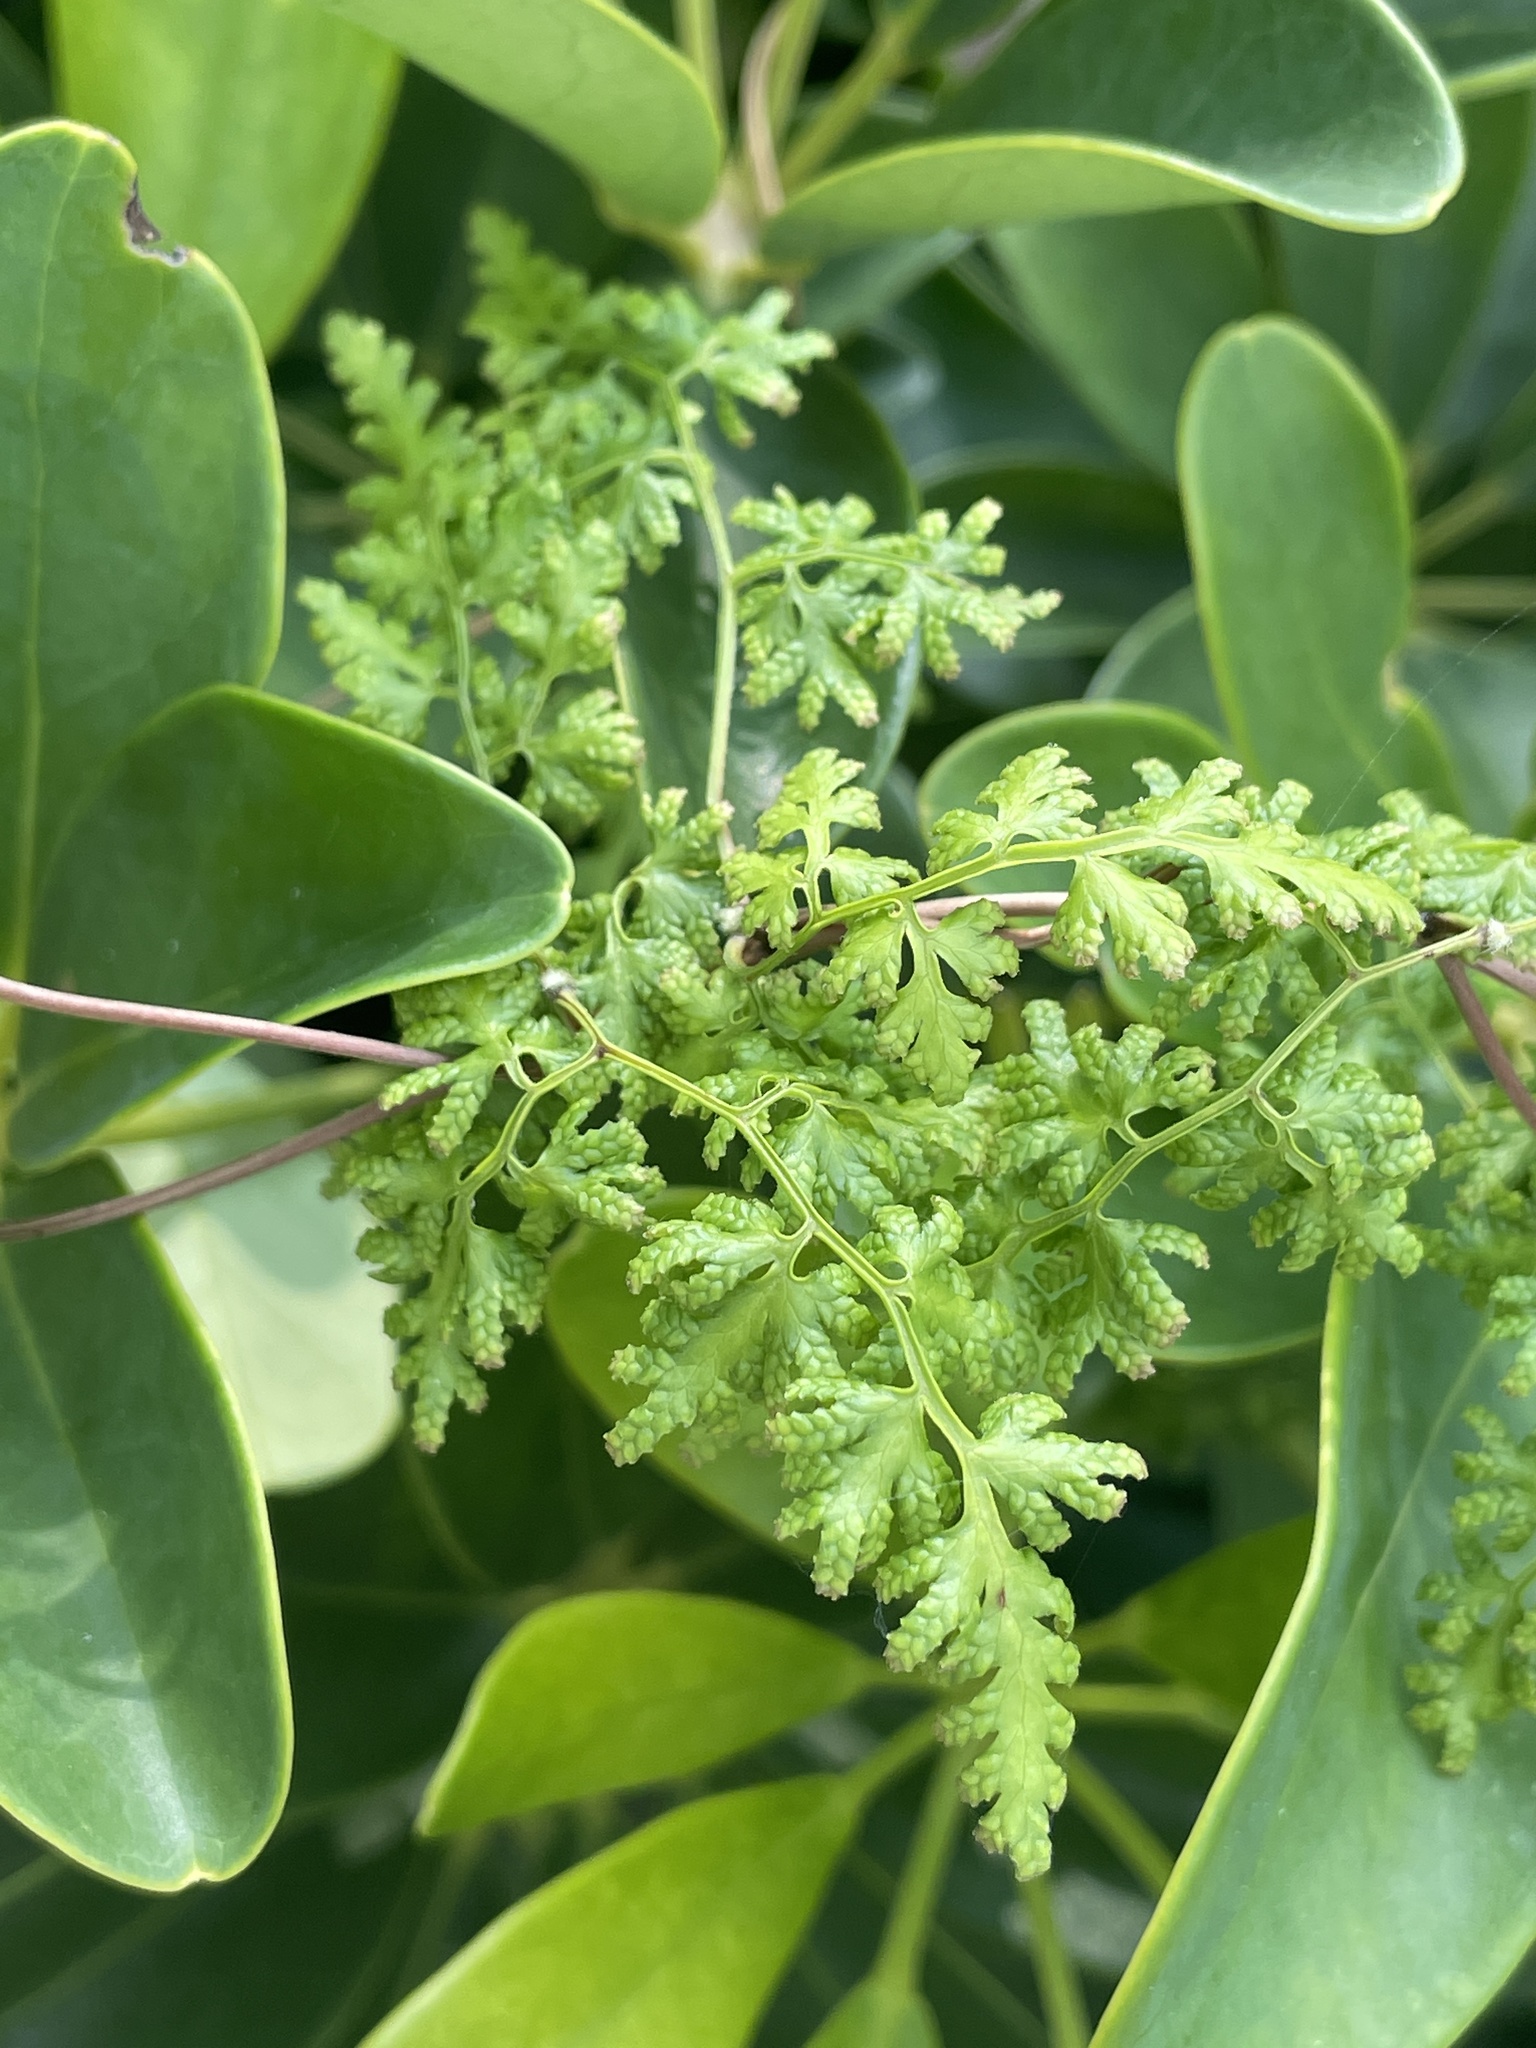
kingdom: Plantae
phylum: Tracheophyta
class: Polypodiopsida
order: Schizaeales
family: Lygodiaceae
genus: Lygodium
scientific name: Lygodium japonicum
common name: Japanese climbing fern
